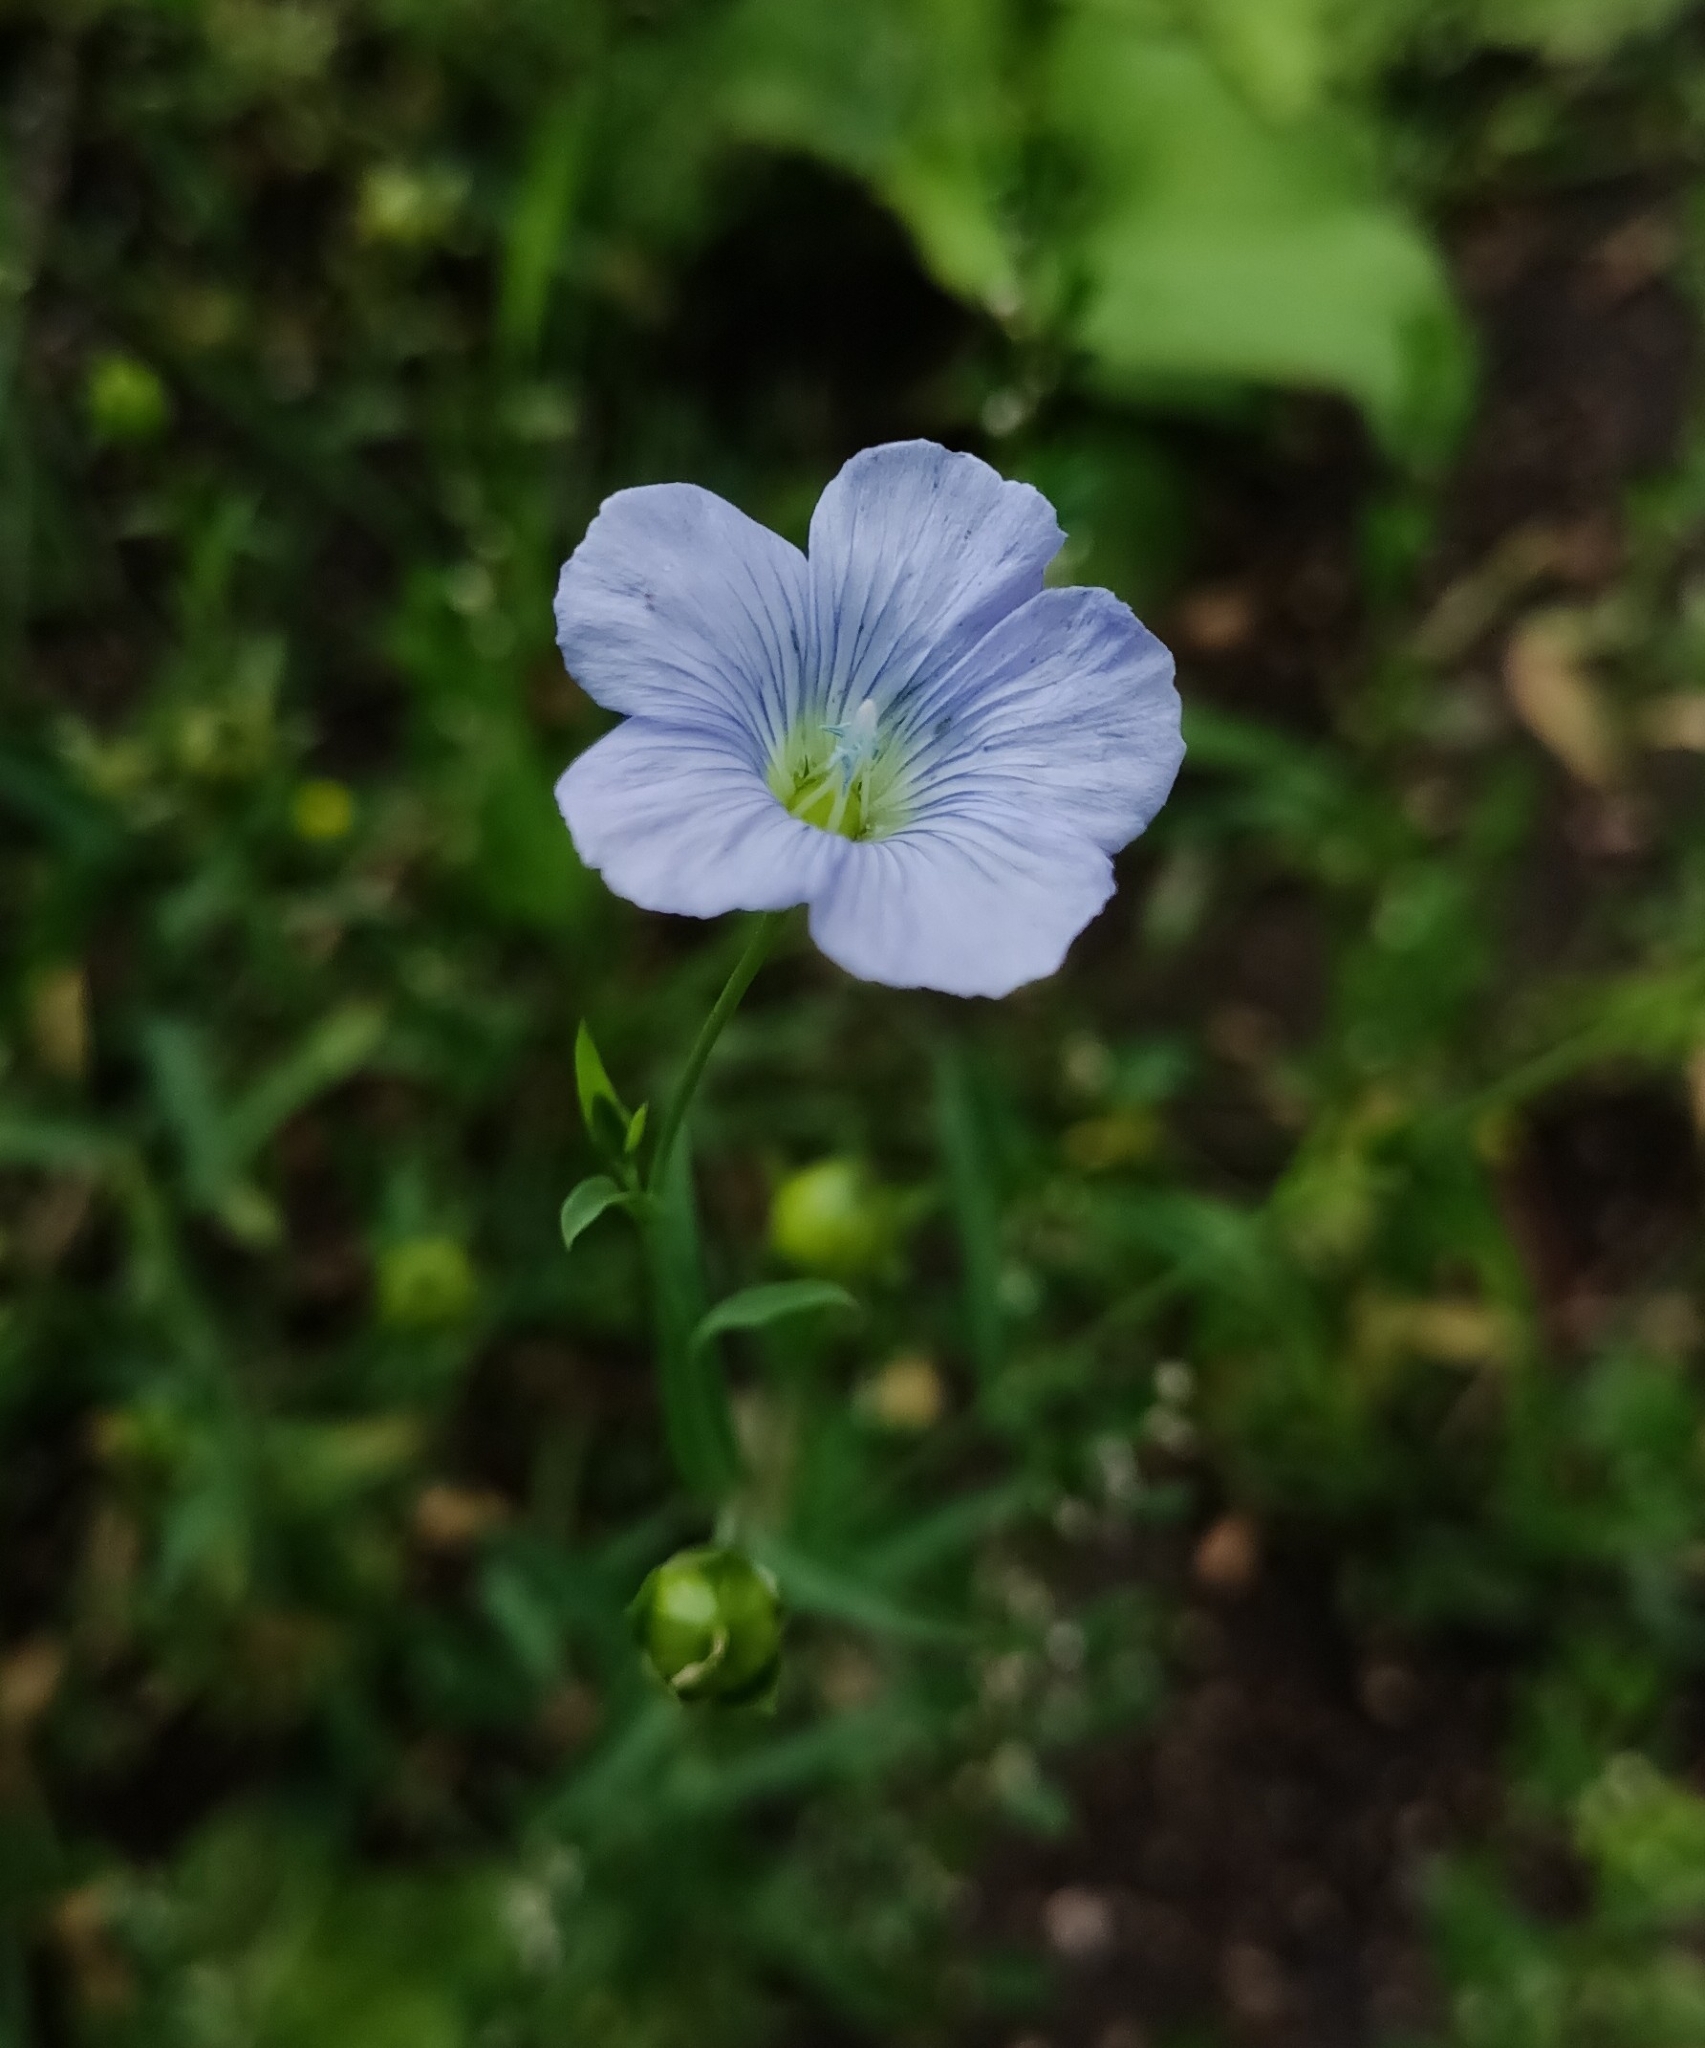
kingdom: Plantae
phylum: Tracheophyta
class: Magnoliopsida
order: Malpighiales
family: Linaceae
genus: Linum
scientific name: Linum usitatissimum
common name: Flax
